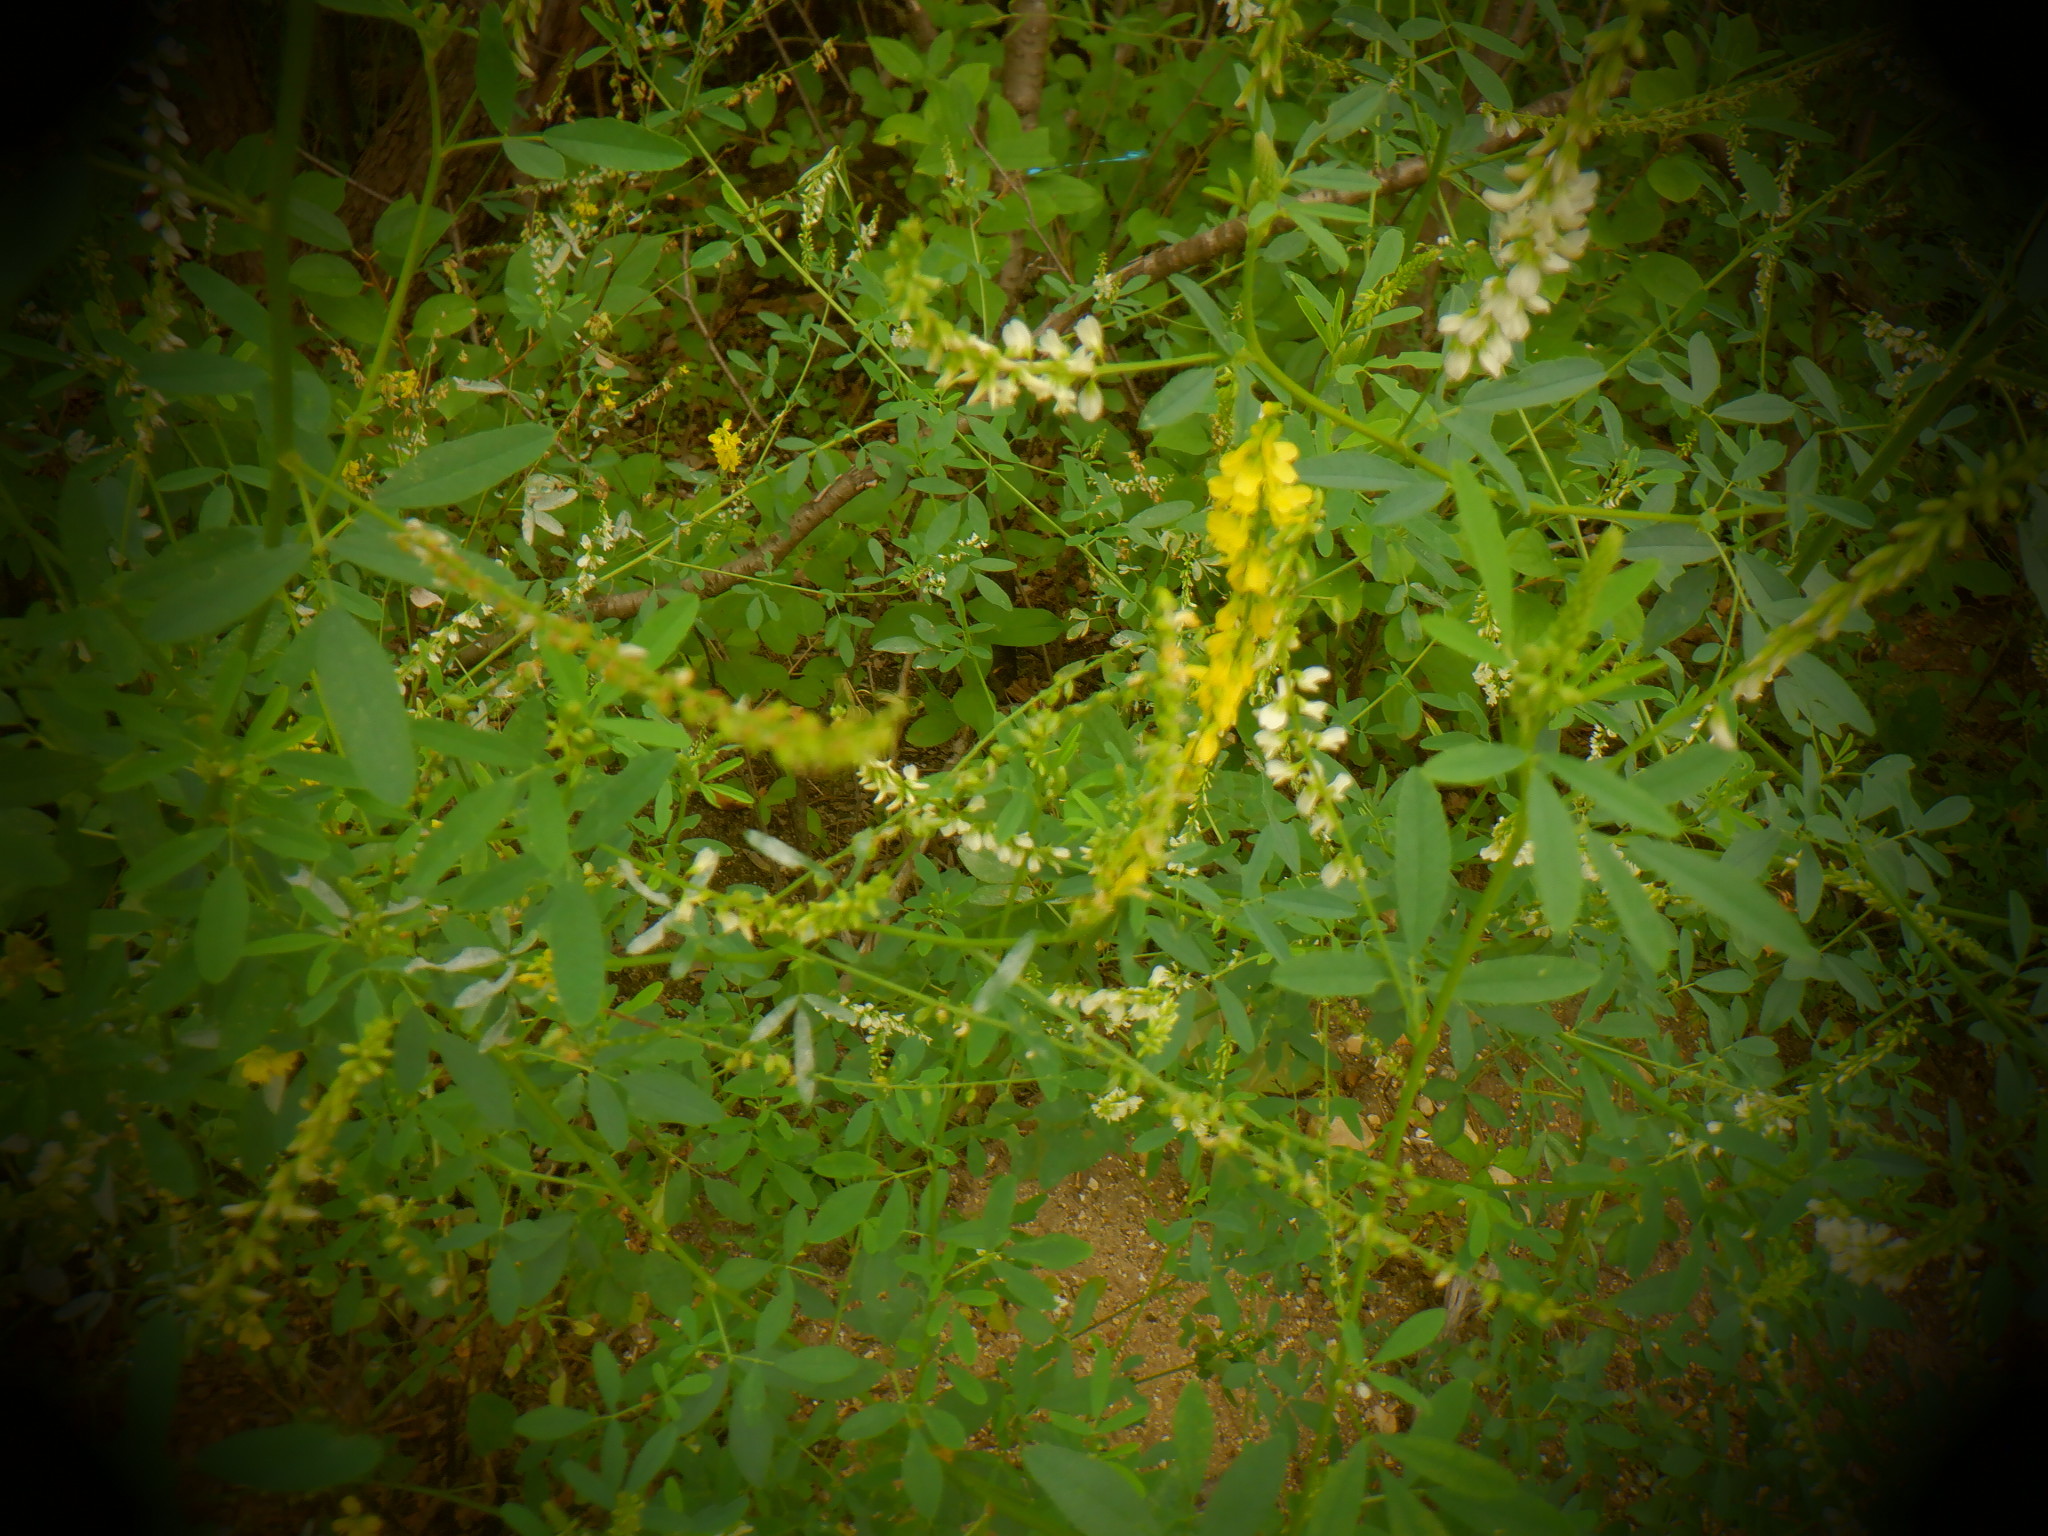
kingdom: Plantae
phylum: Tracheophyta
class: Magnoliopsida
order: Fabales
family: Fabaceae
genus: Melilotus
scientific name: Melilotus officinalis
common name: Sweetclover
